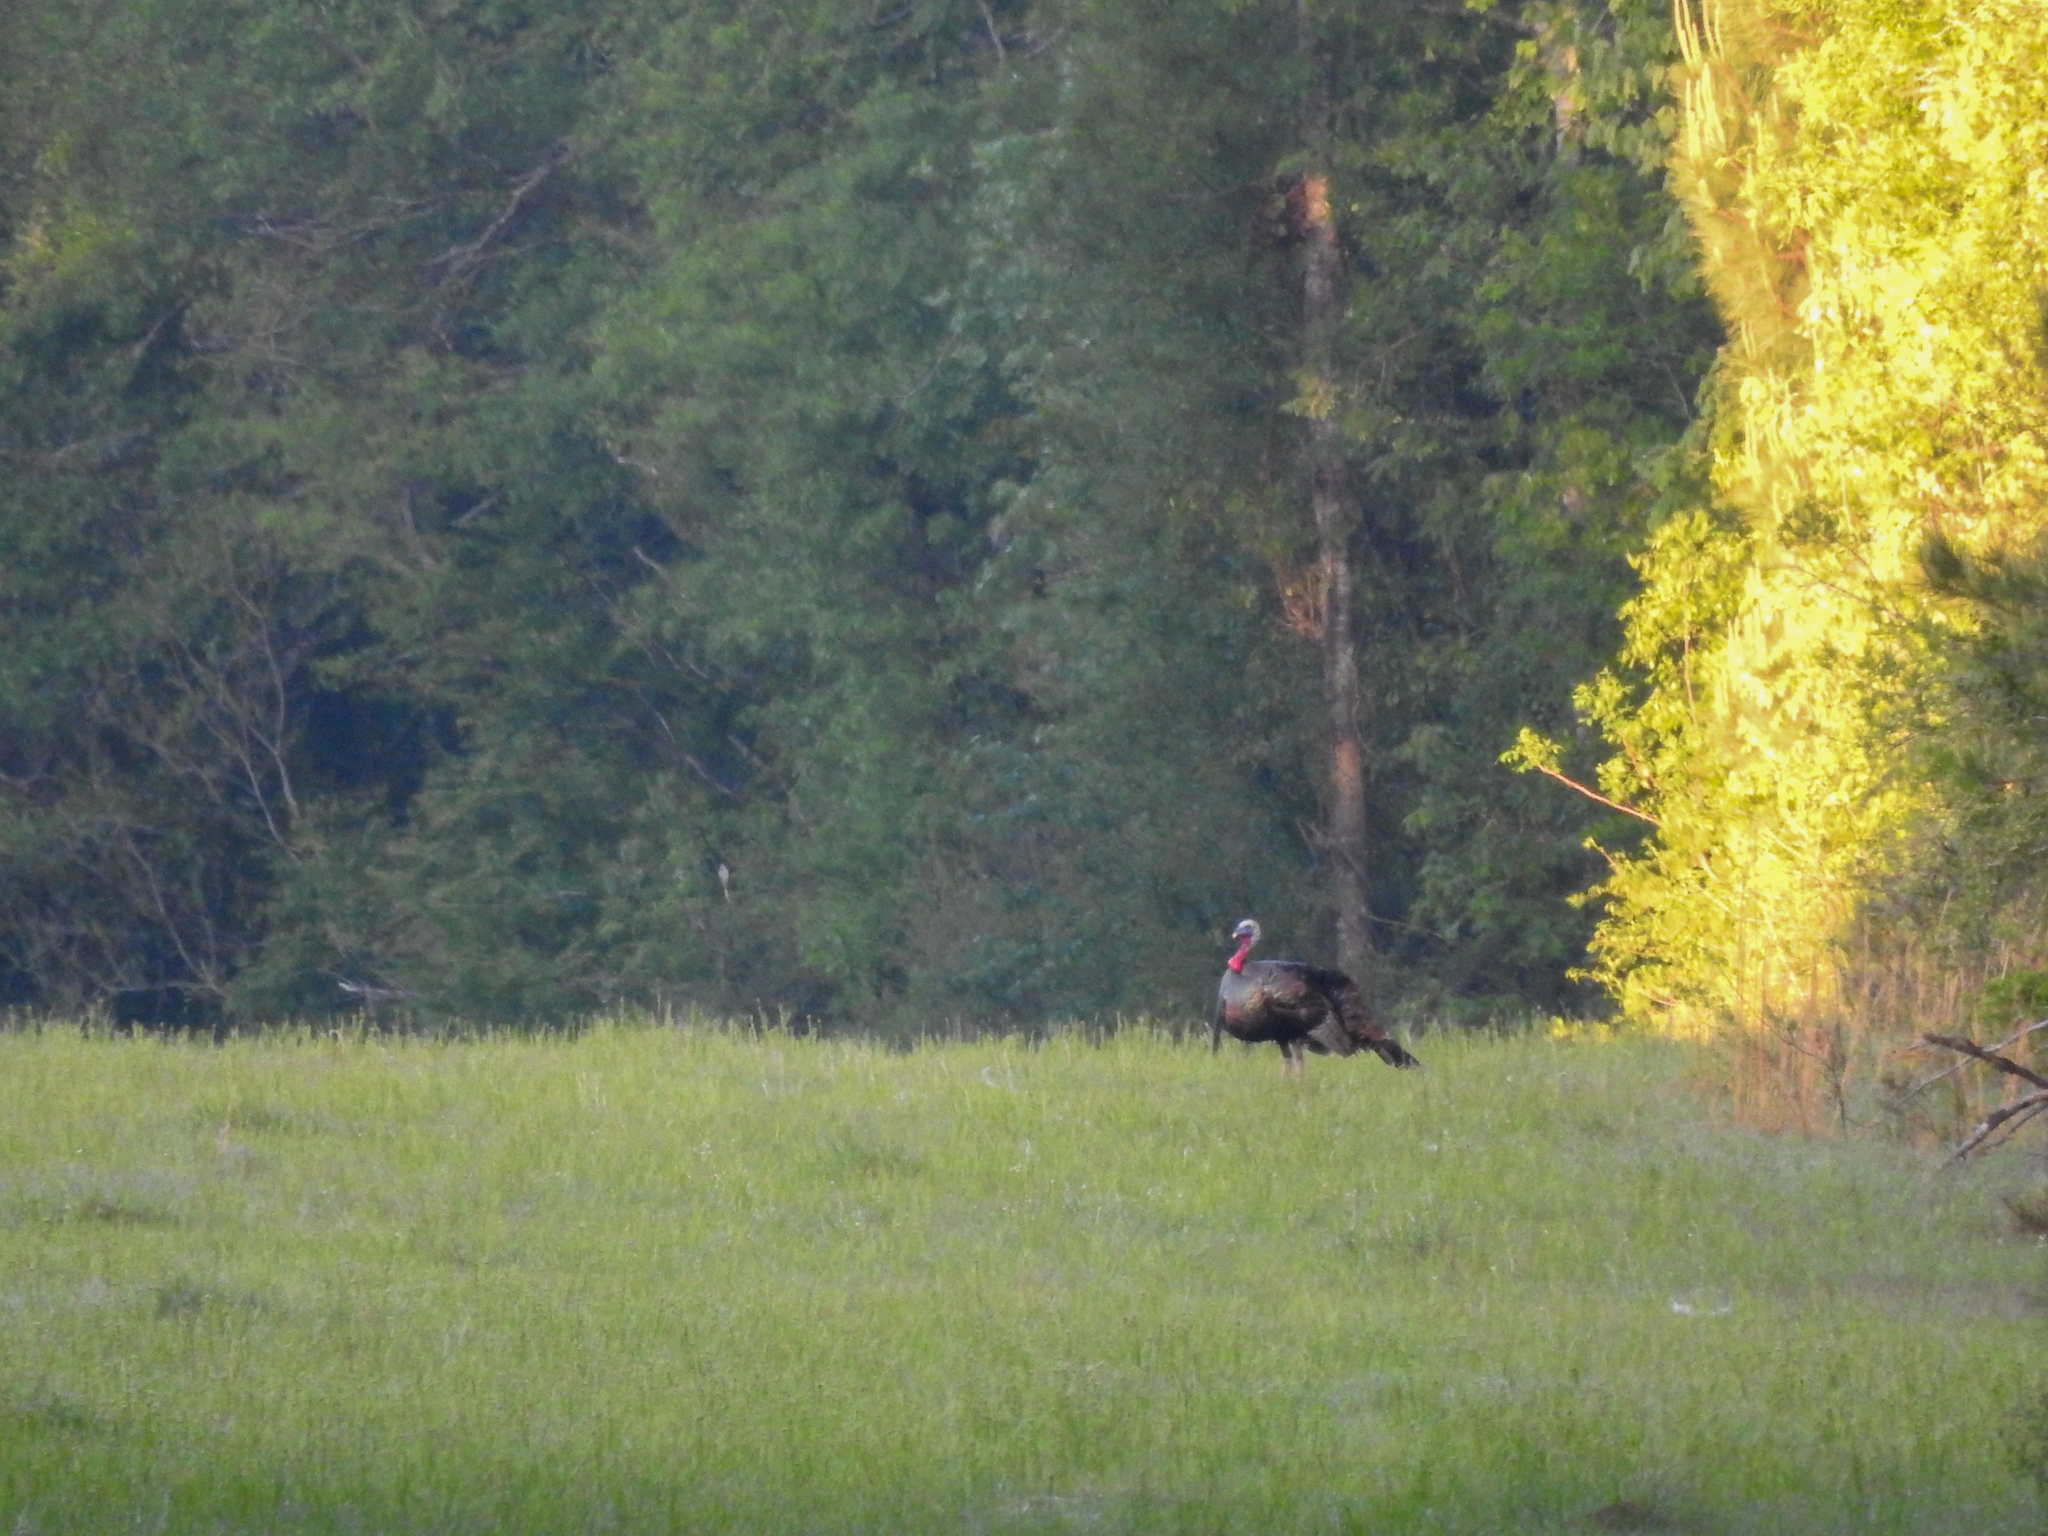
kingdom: Animalia
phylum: Chordata
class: Aves
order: Galliformes
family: Phasianidae
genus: Meleagris
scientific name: Meleagris gallopavo
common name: Wild turkey
